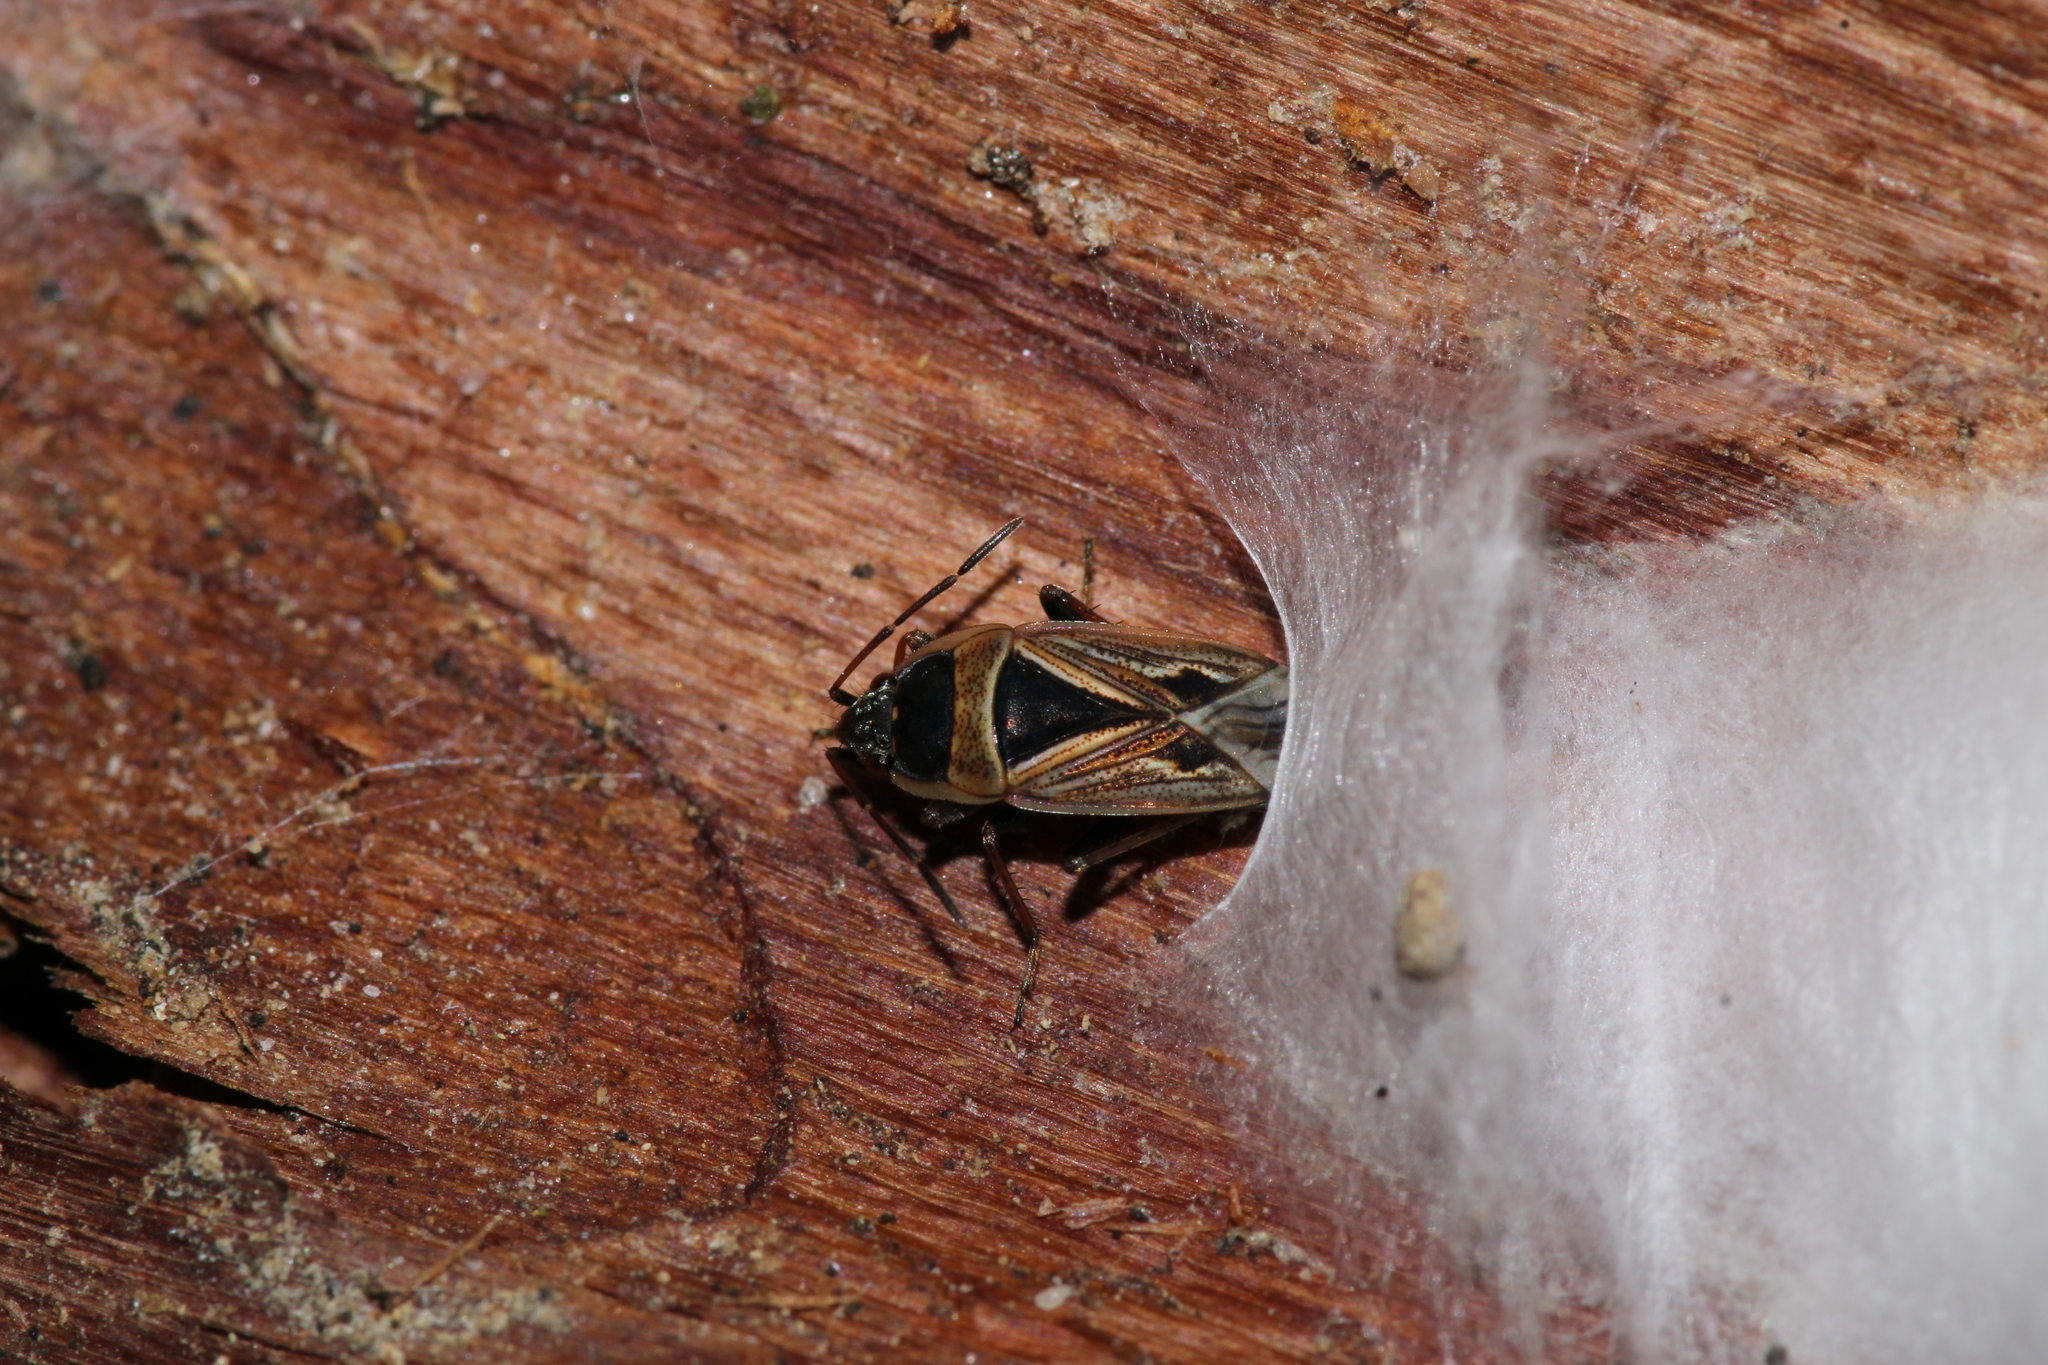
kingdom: Animalia
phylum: Arthropoda
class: Insecta
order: Hemiptera
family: Rhyparochromidae
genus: Xanthochilus
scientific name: Xanthochilus quadratus
